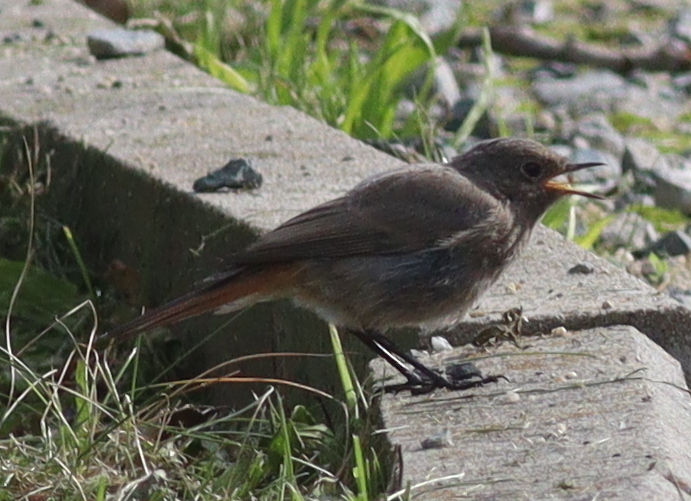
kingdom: Animalia
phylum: Chordata
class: Aves
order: Passeriformes
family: Muscicapidae
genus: Phoenicurus
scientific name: Phoenicurus ochruros
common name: Black redstart
